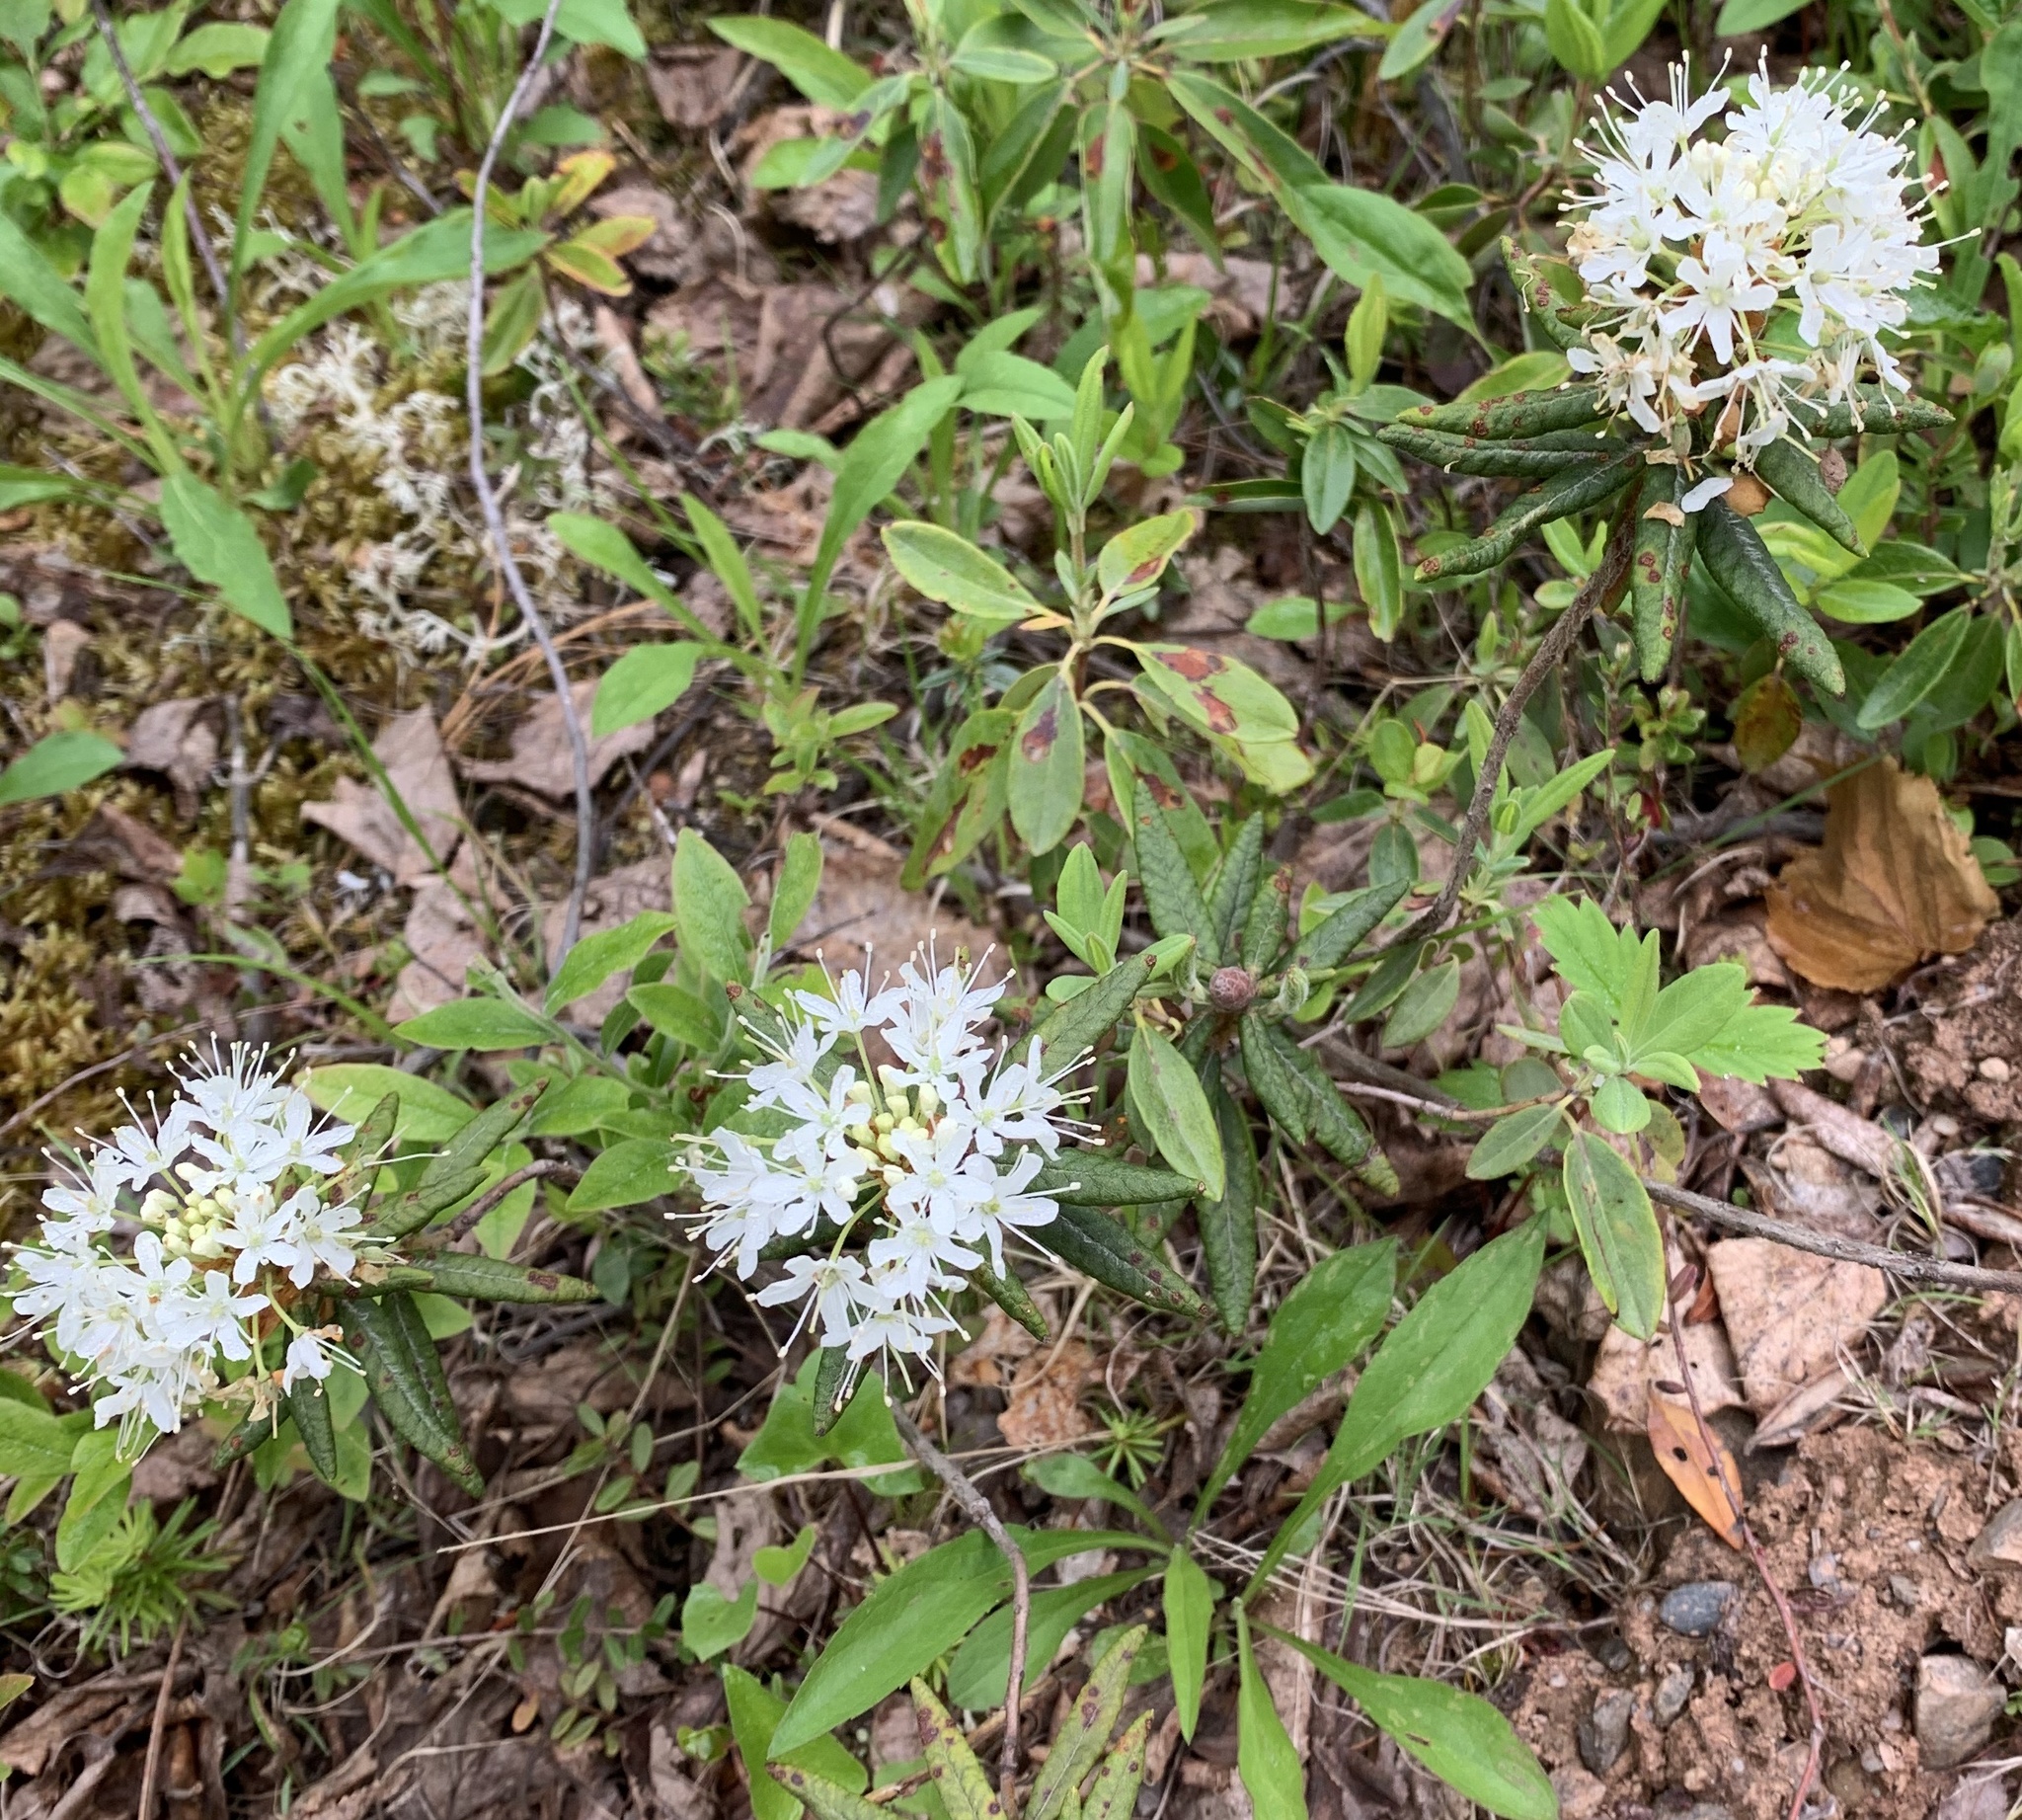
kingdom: Plantae
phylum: Tracheophyta
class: Magnoliopsida
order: Ericales
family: Ericaceae
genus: Rhododendron
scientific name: Rhododendron groenlandicum
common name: Bog labrador tea
